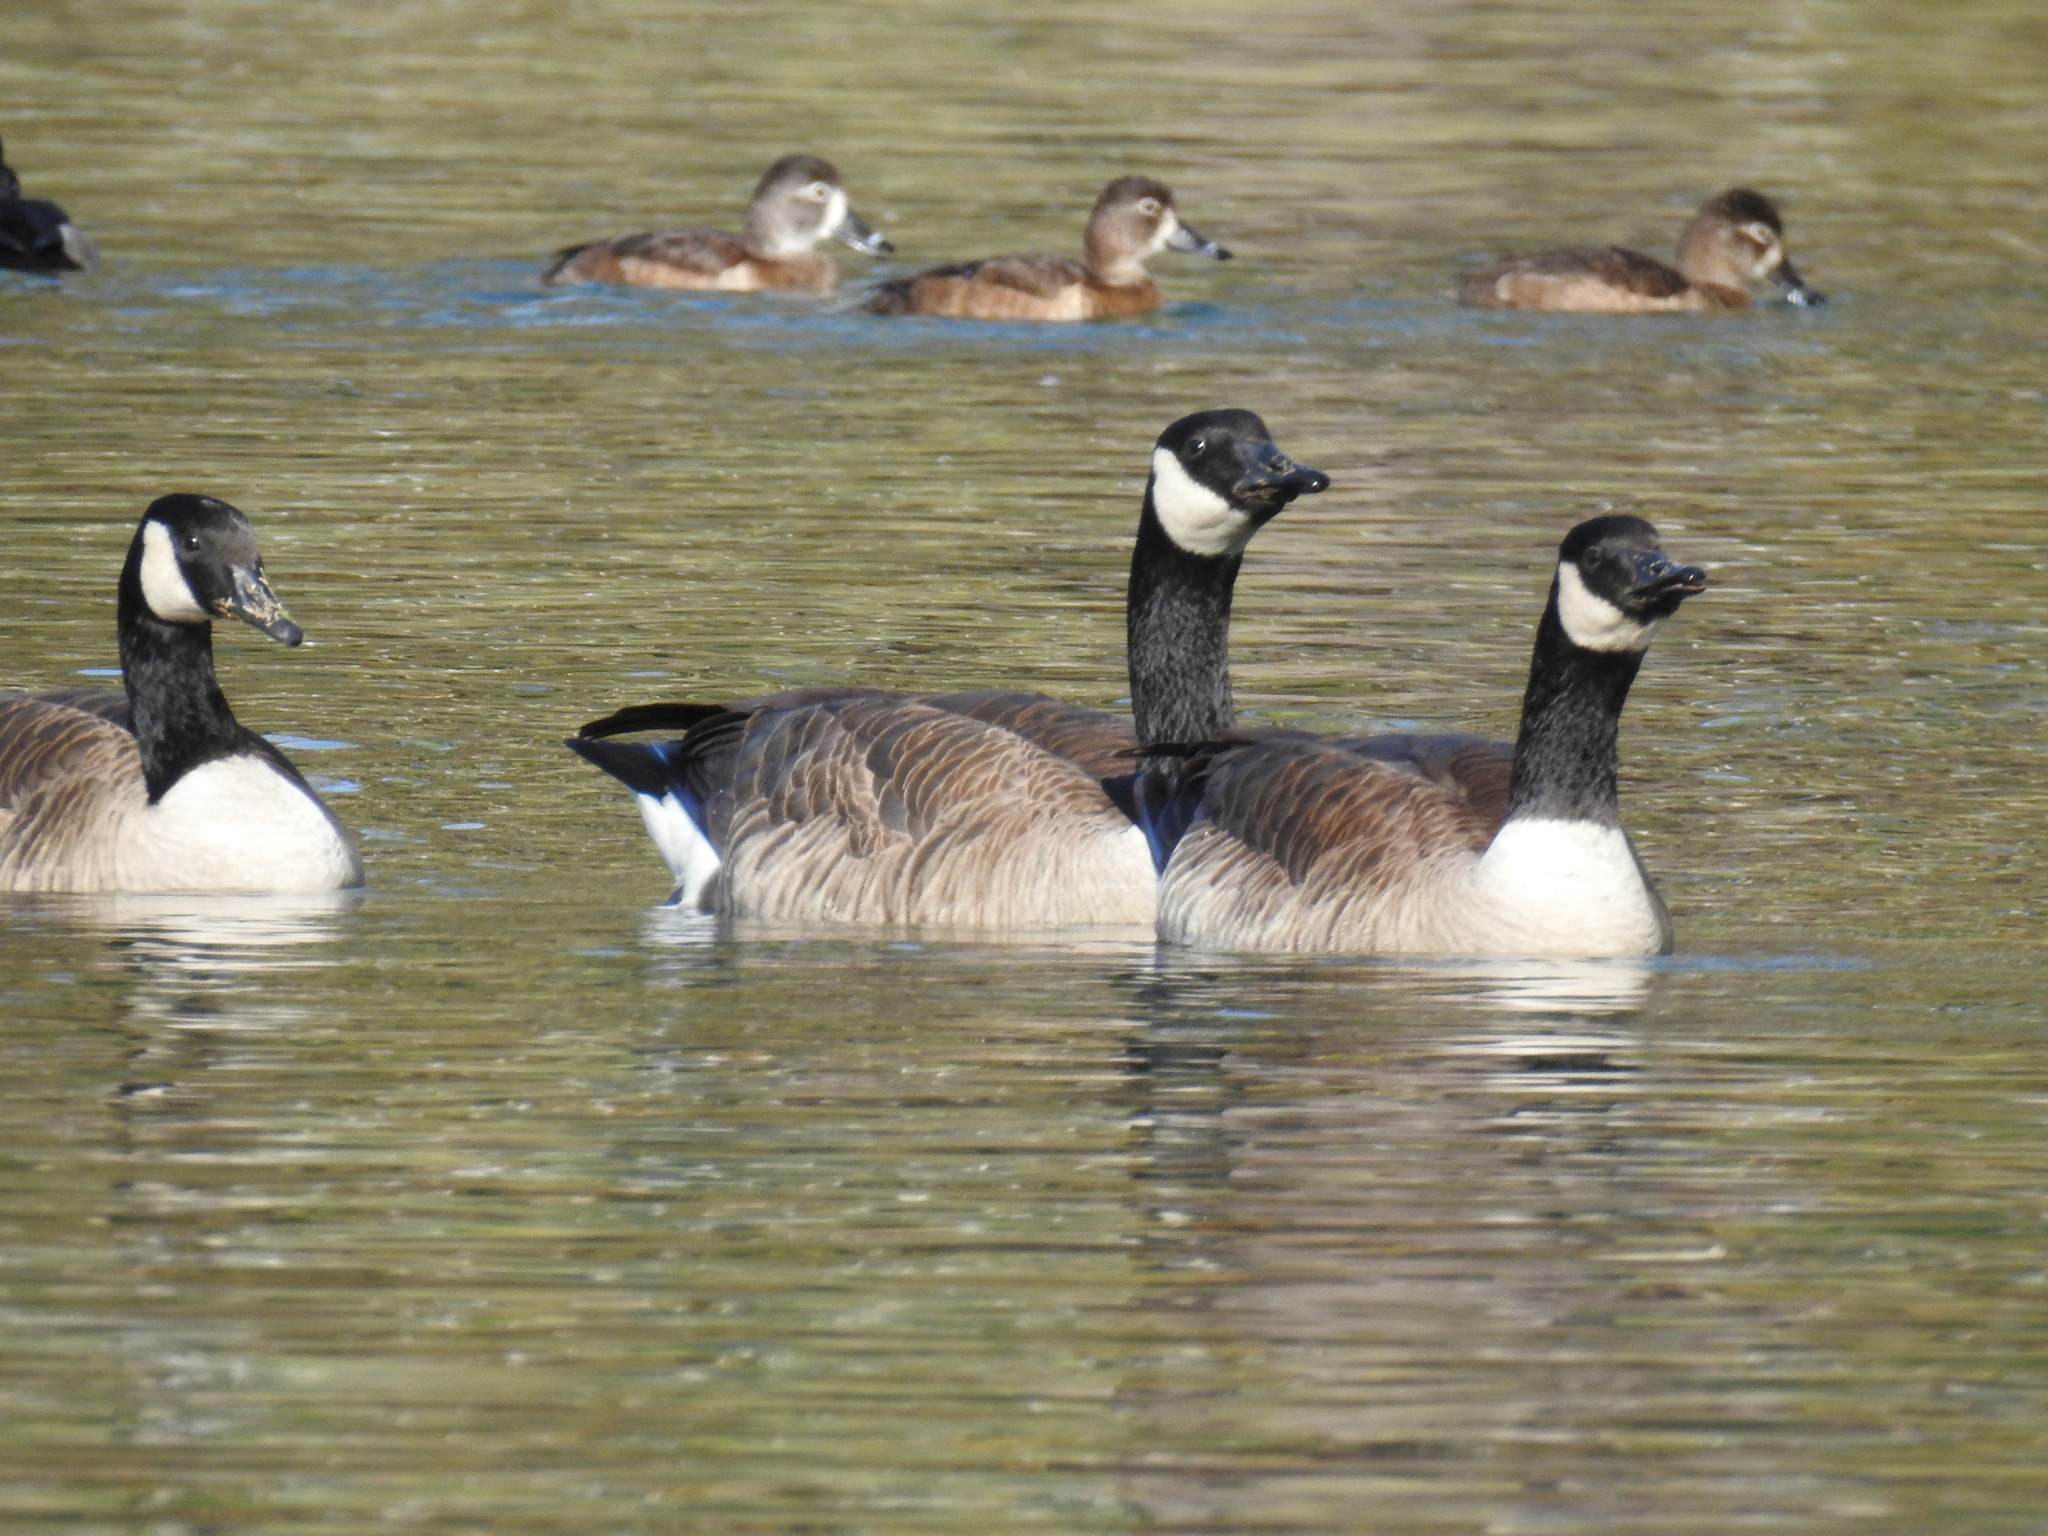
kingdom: Animalia
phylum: Chordata
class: Aves
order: Anseriformes
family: Anatidae
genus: Branta
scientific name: Branta canadensis
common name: Canada goose
